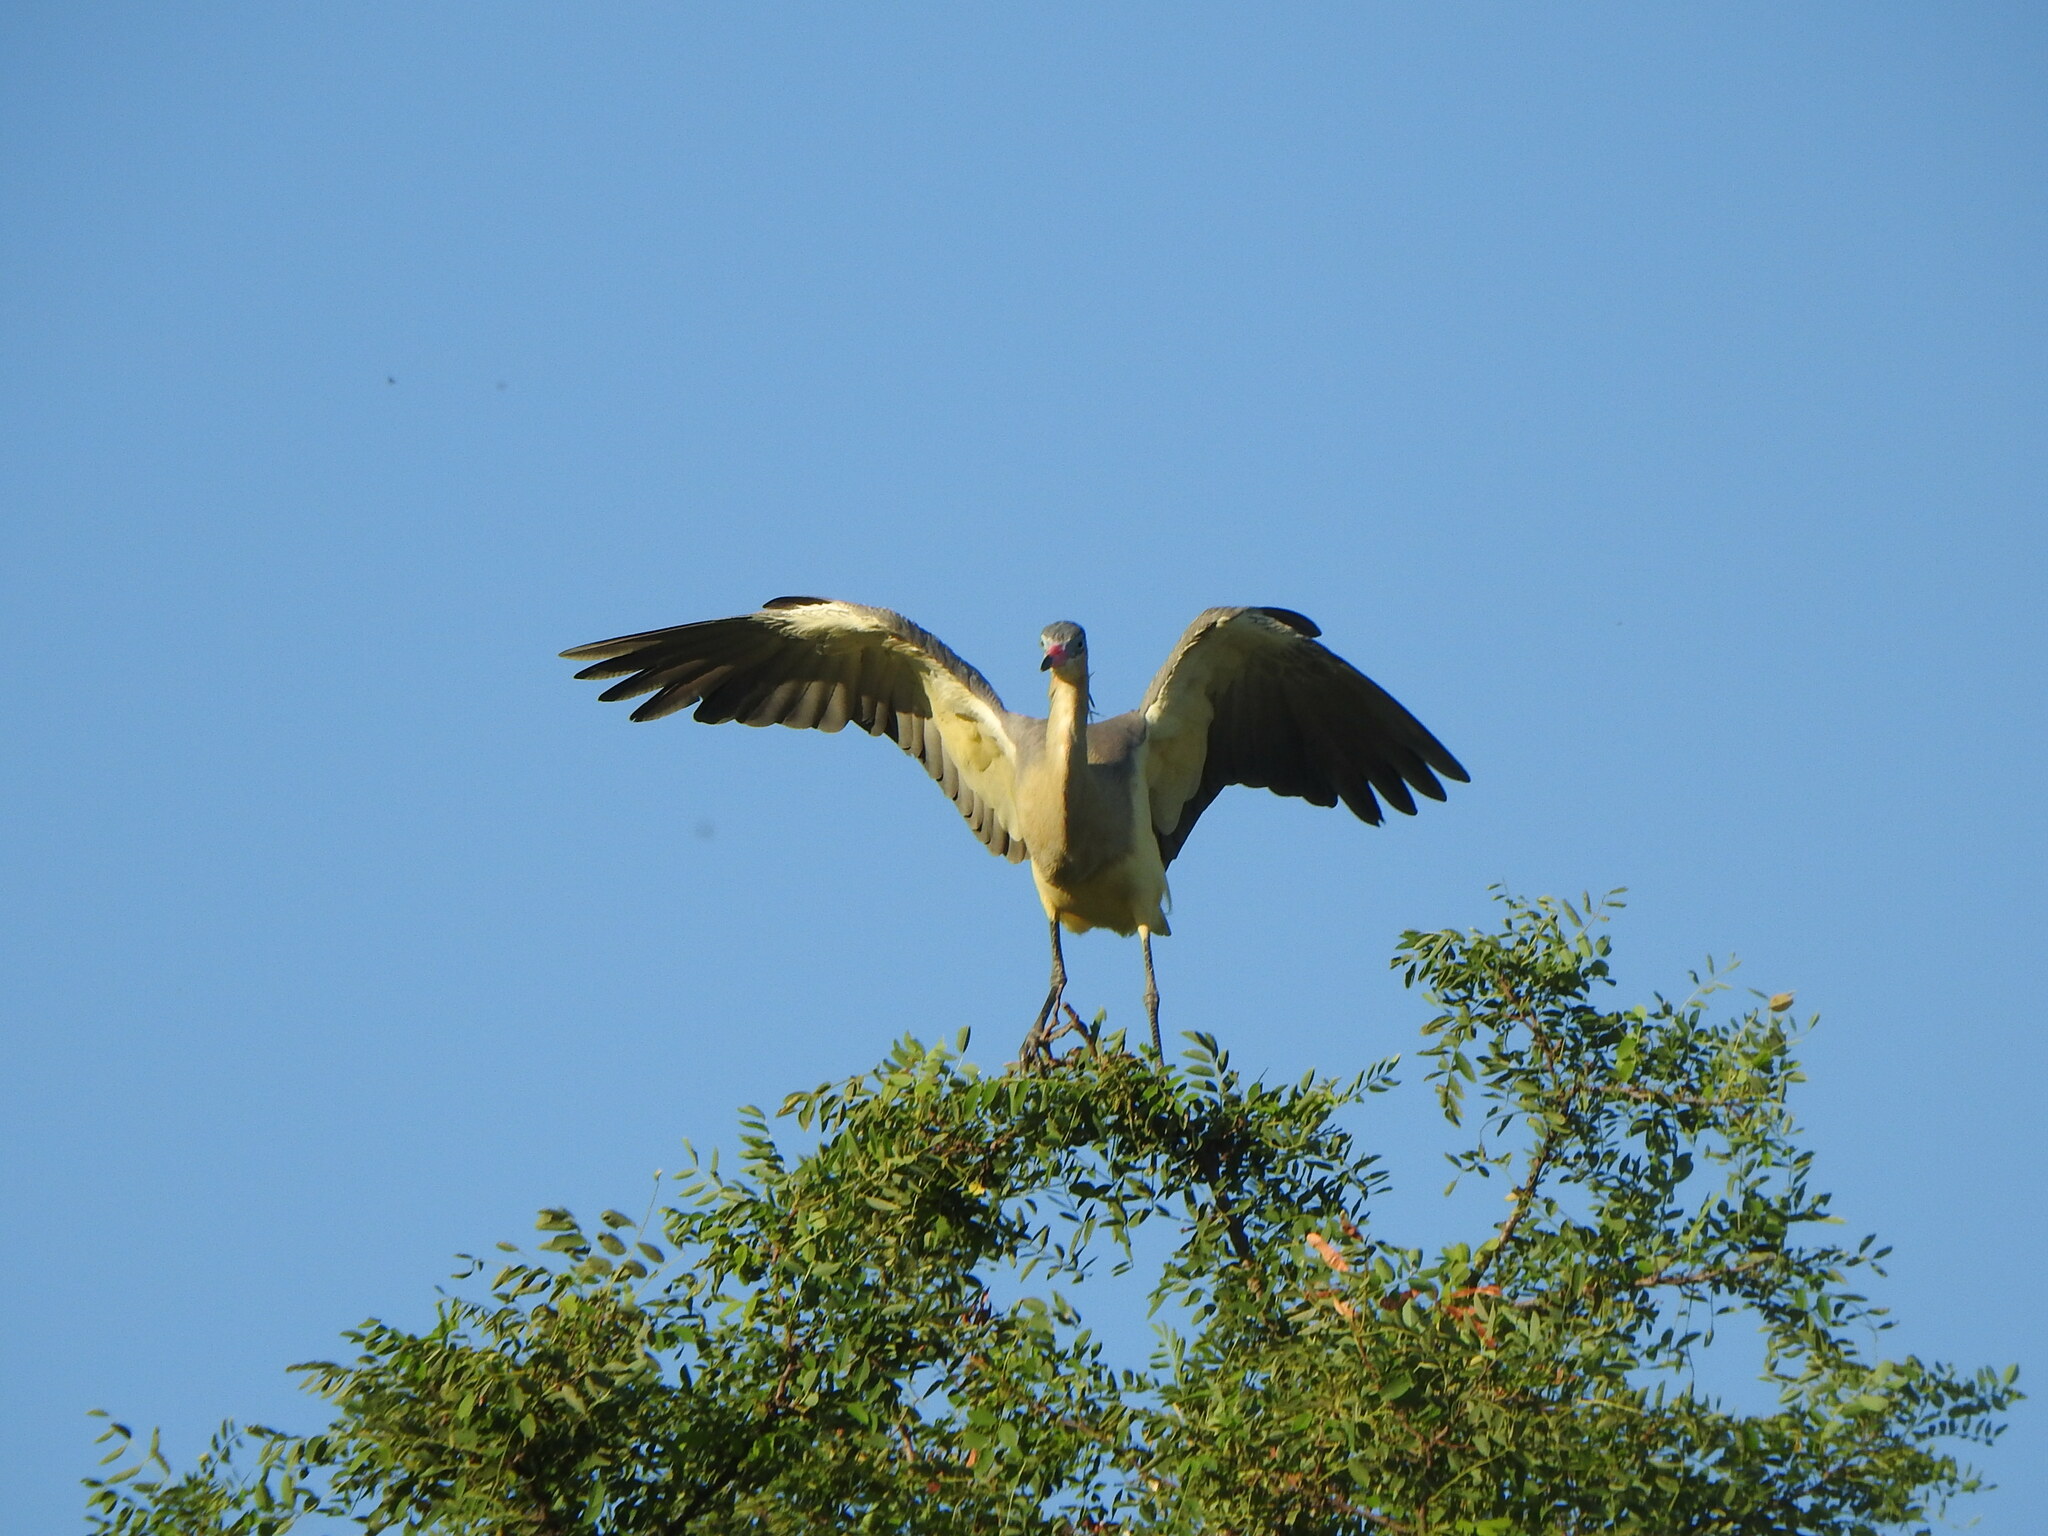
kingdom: Animalia
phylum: Chordata
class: Aves
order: Pelecaniformes
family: Ardeidae
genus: Syrigma
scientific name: Syrigma sibilatrix
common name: Whistling heron
